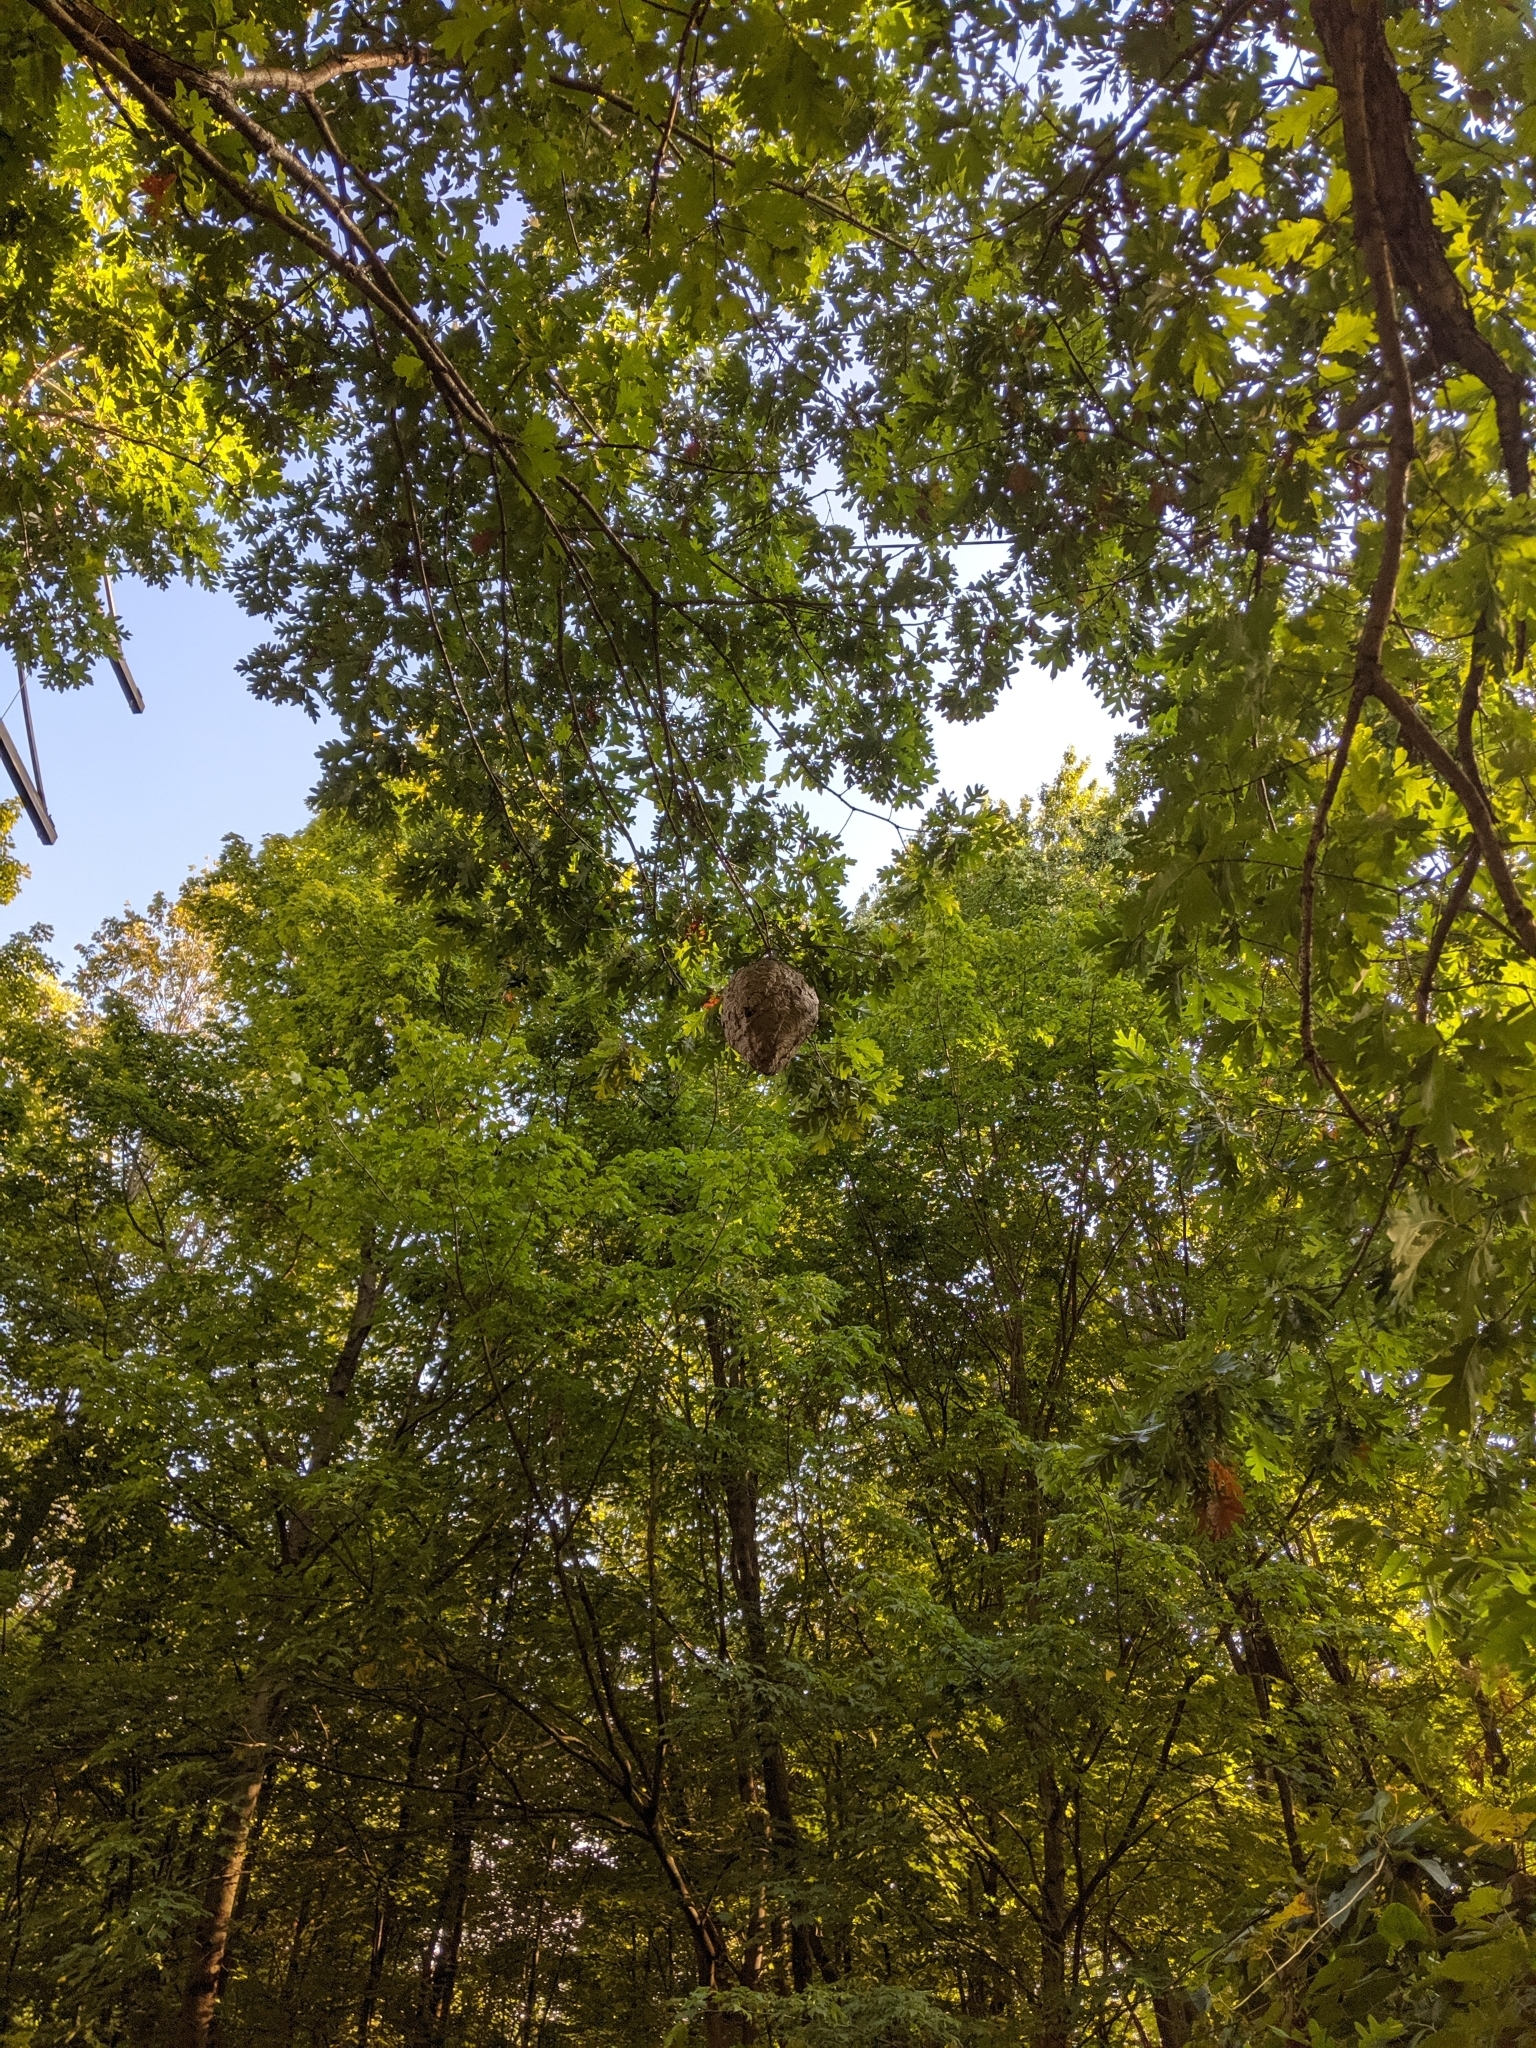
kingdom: Animalia
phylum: Arthropoda
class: Insecta
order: Hymenoptera
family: Vespidae
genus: Dolichovespula
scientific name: Dolichovespula maculata
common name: Bald-faced hornet
